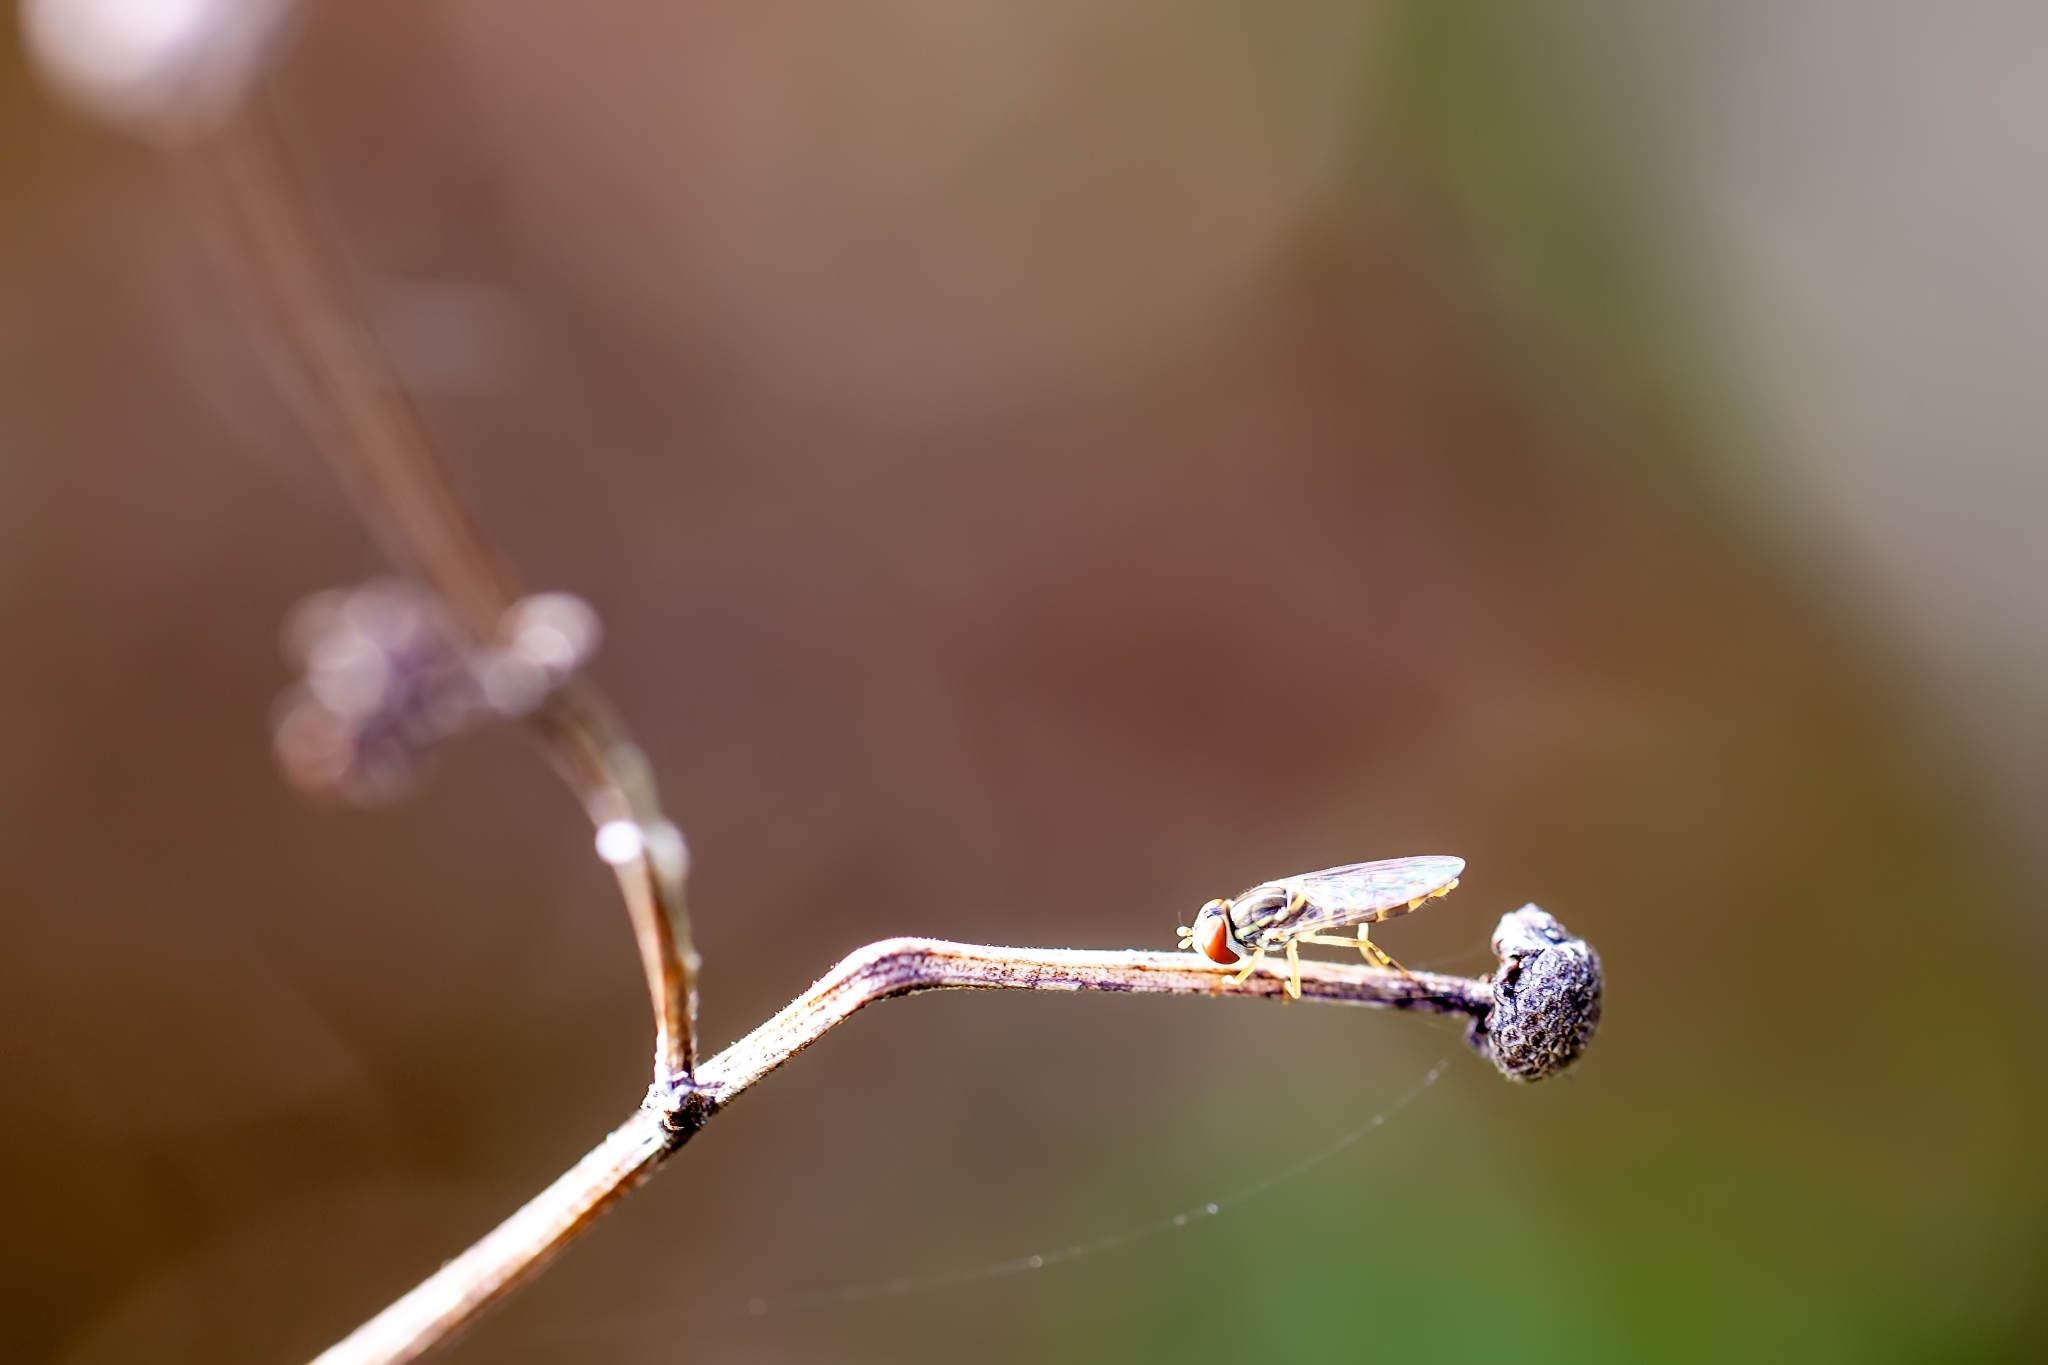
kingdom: Animalia
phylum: Arthropoda
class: Insecta
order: Diptera
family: Syrphidae
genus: Toxomerus
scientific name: Toxomerus floralis
